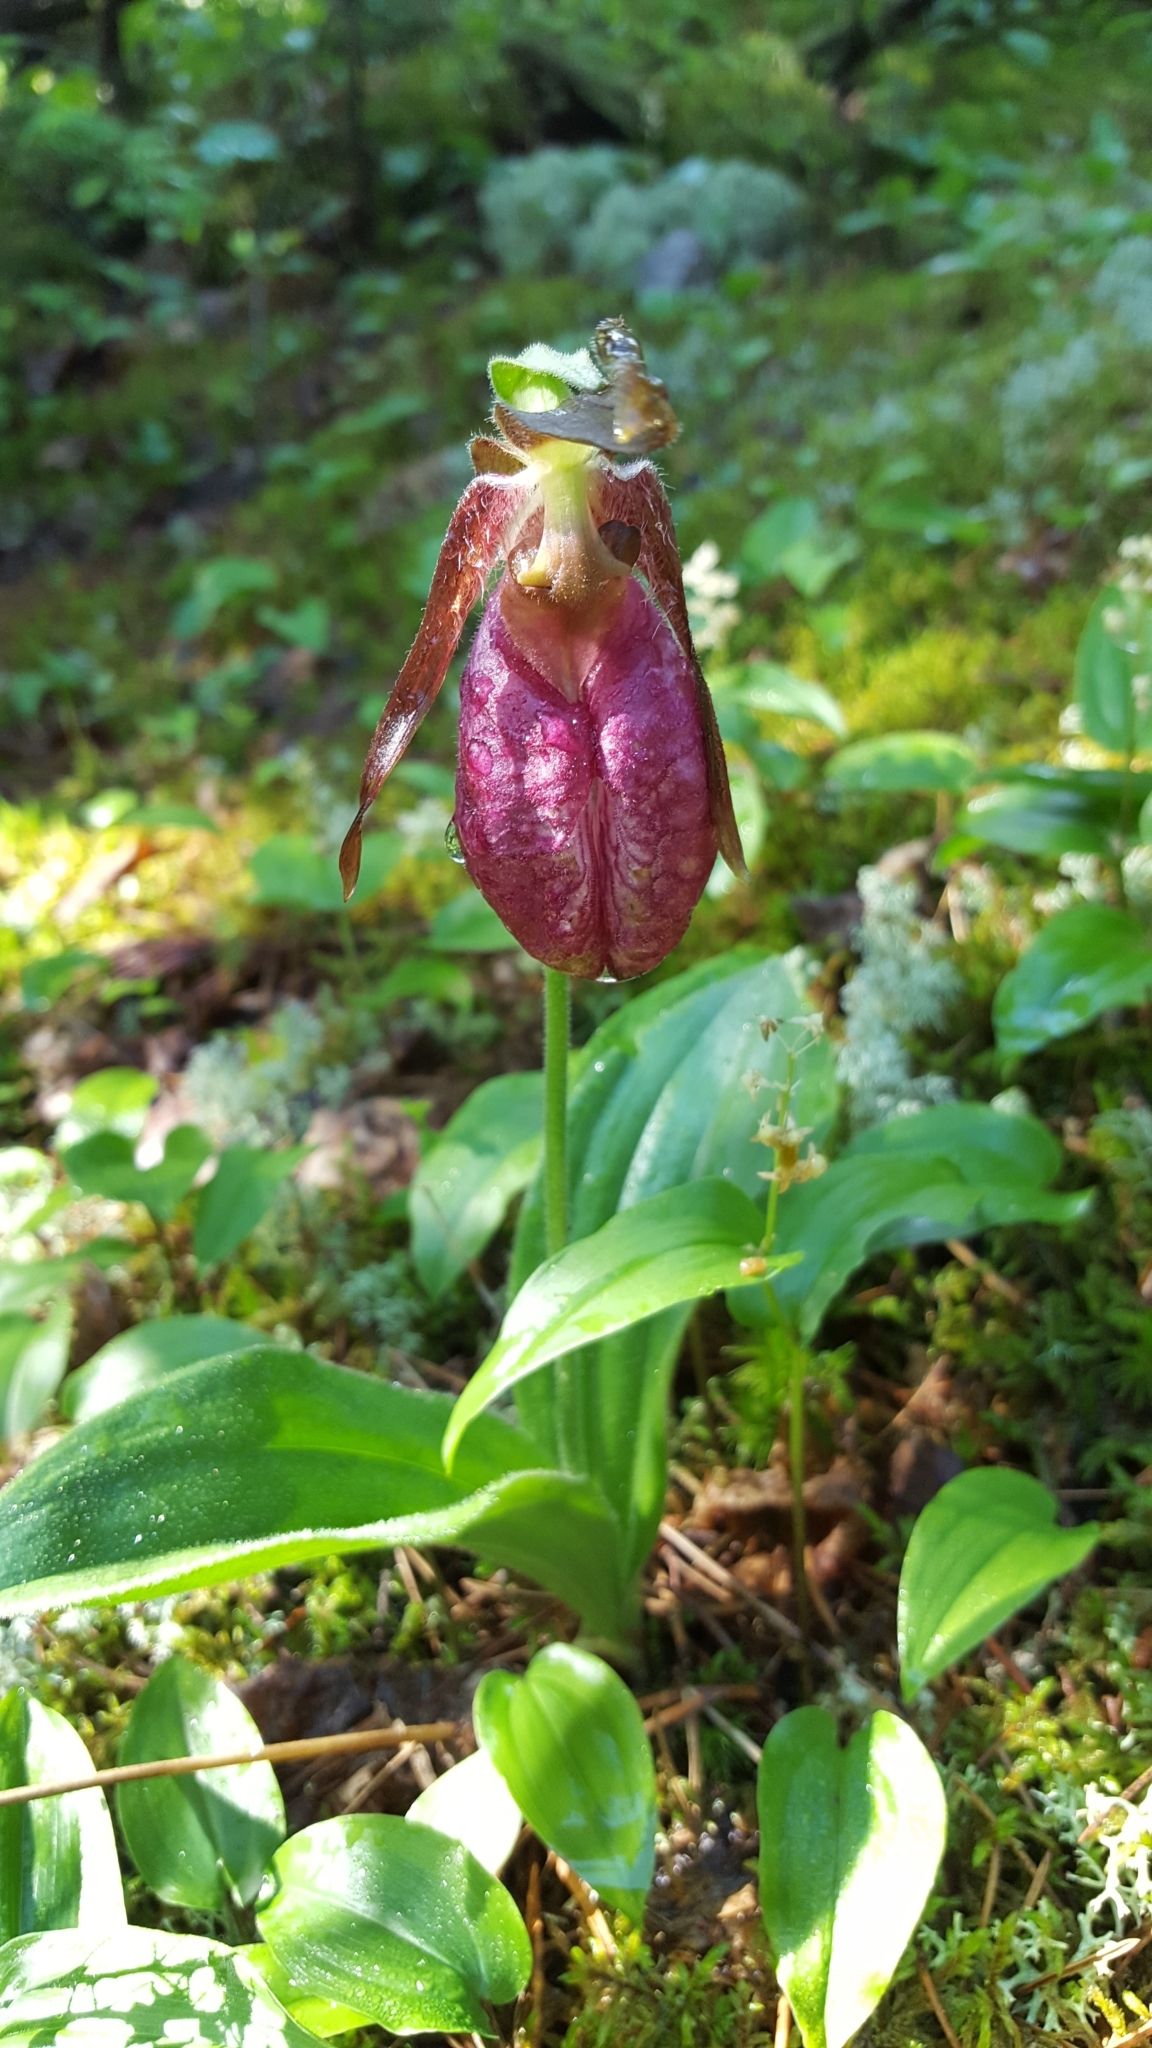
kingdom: Plantae
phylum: Tracheophyta
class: Liliopsida
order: Asparagales
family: Orchidaceae
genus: Cypripedium
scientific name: Cypripedium acaule
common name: Pink lady's-slipper
